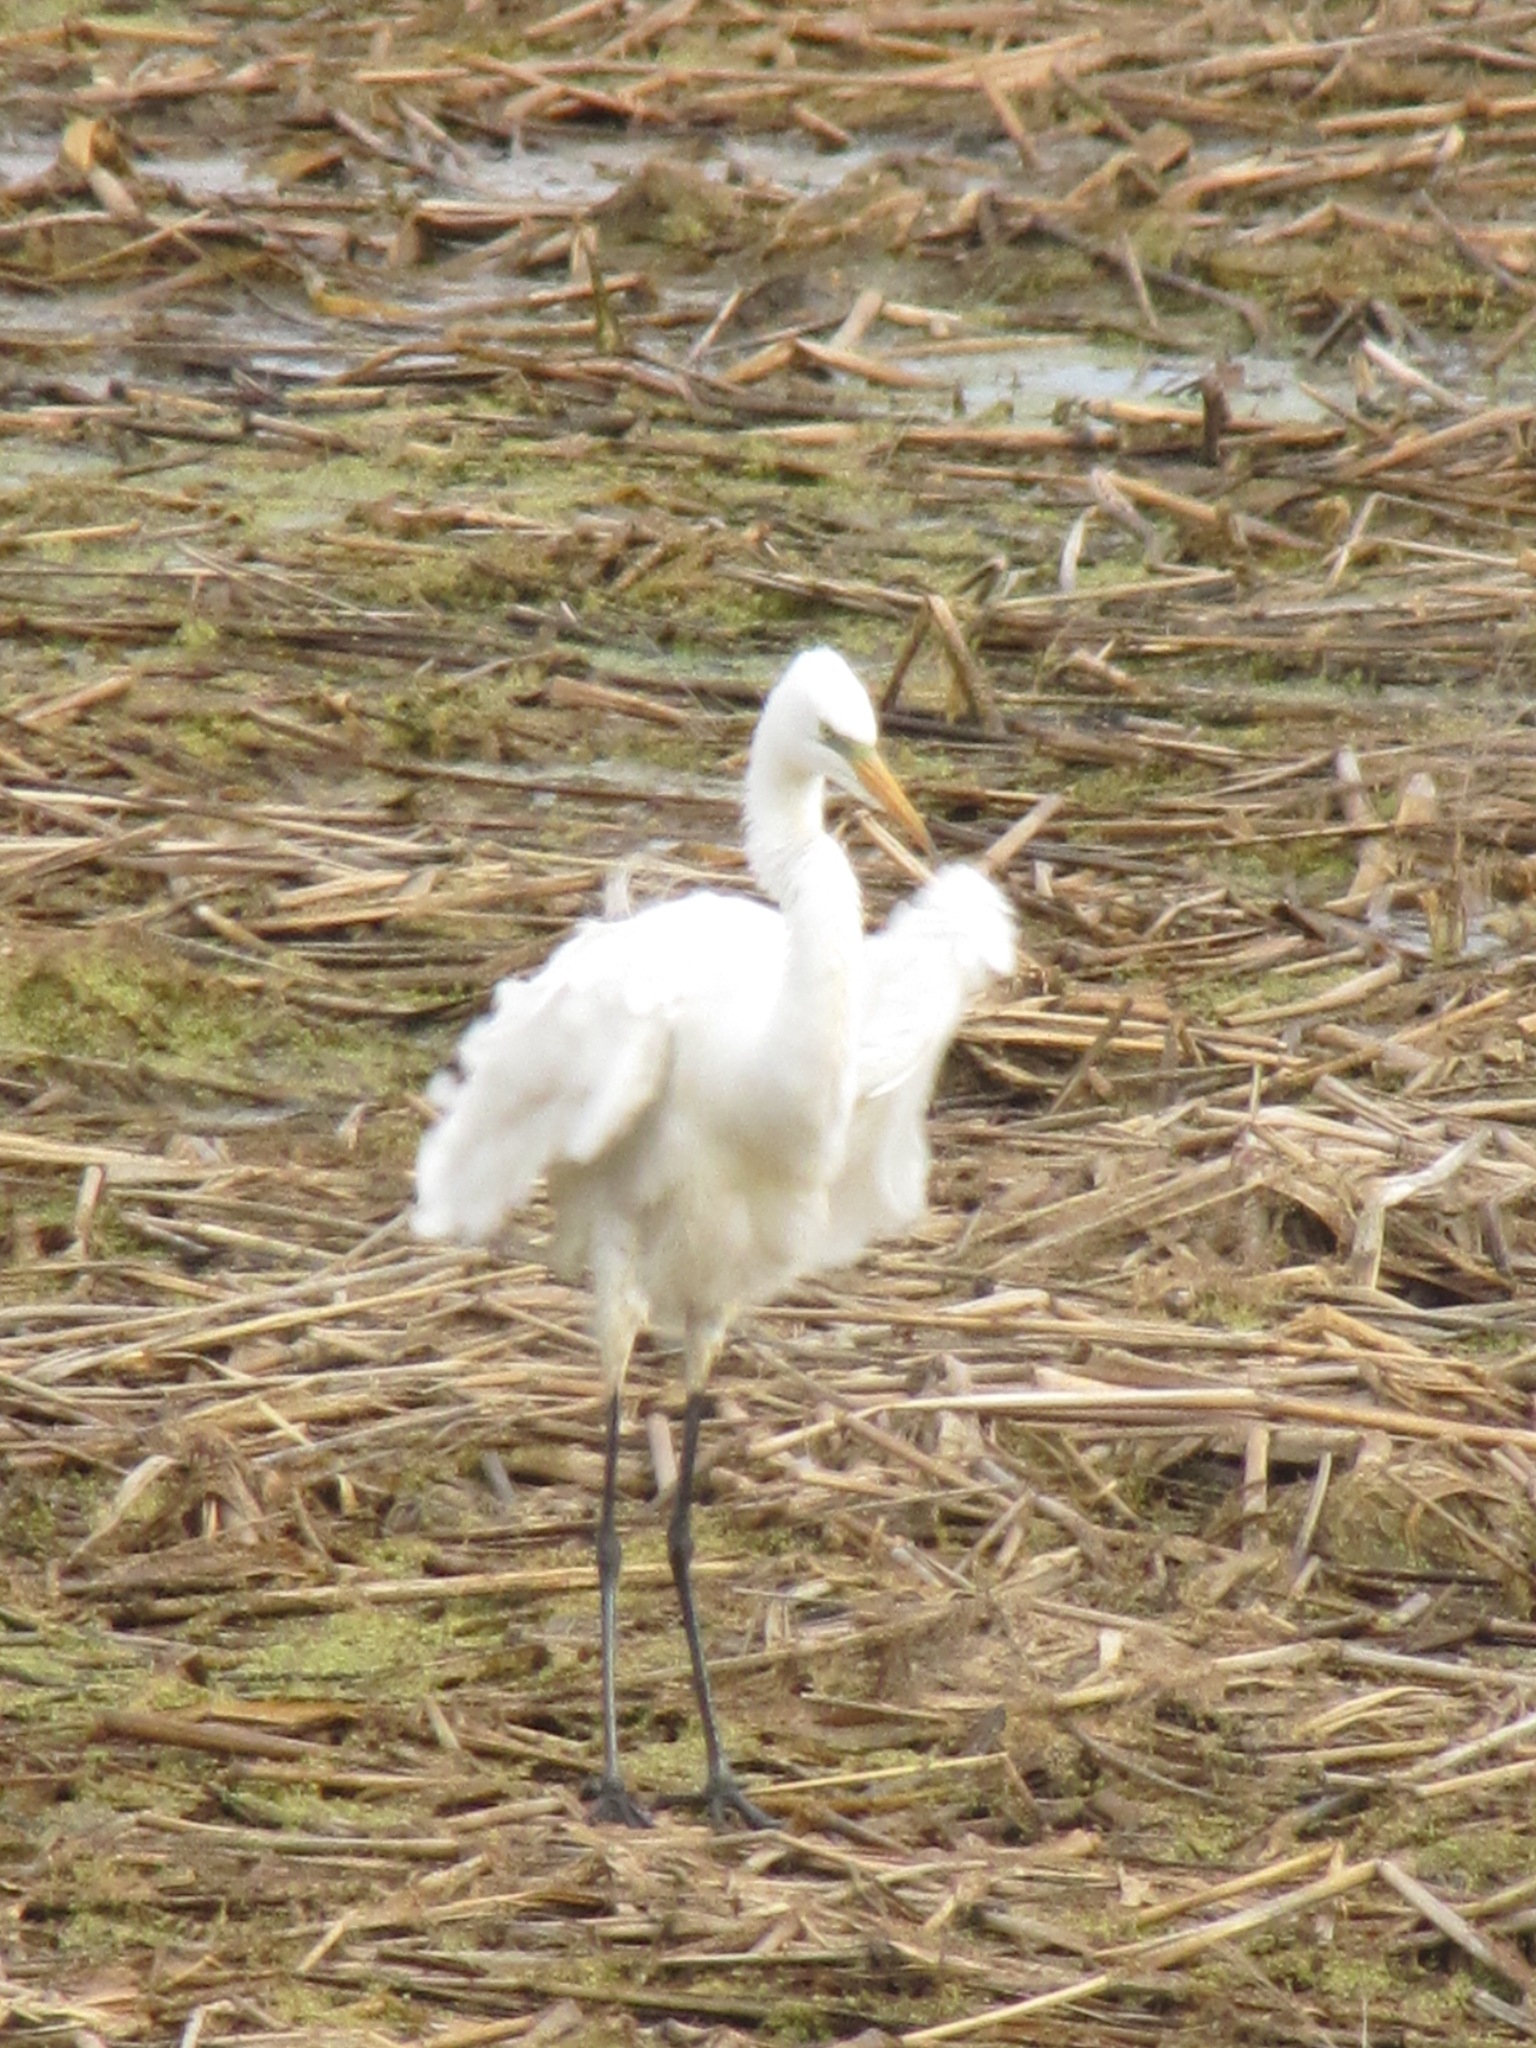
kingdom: Animalia
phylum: Chordata
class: Aves
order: Pelecaniformes
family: Ardeidae
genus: Ardea
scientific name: Ardea alba
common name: Great egret
